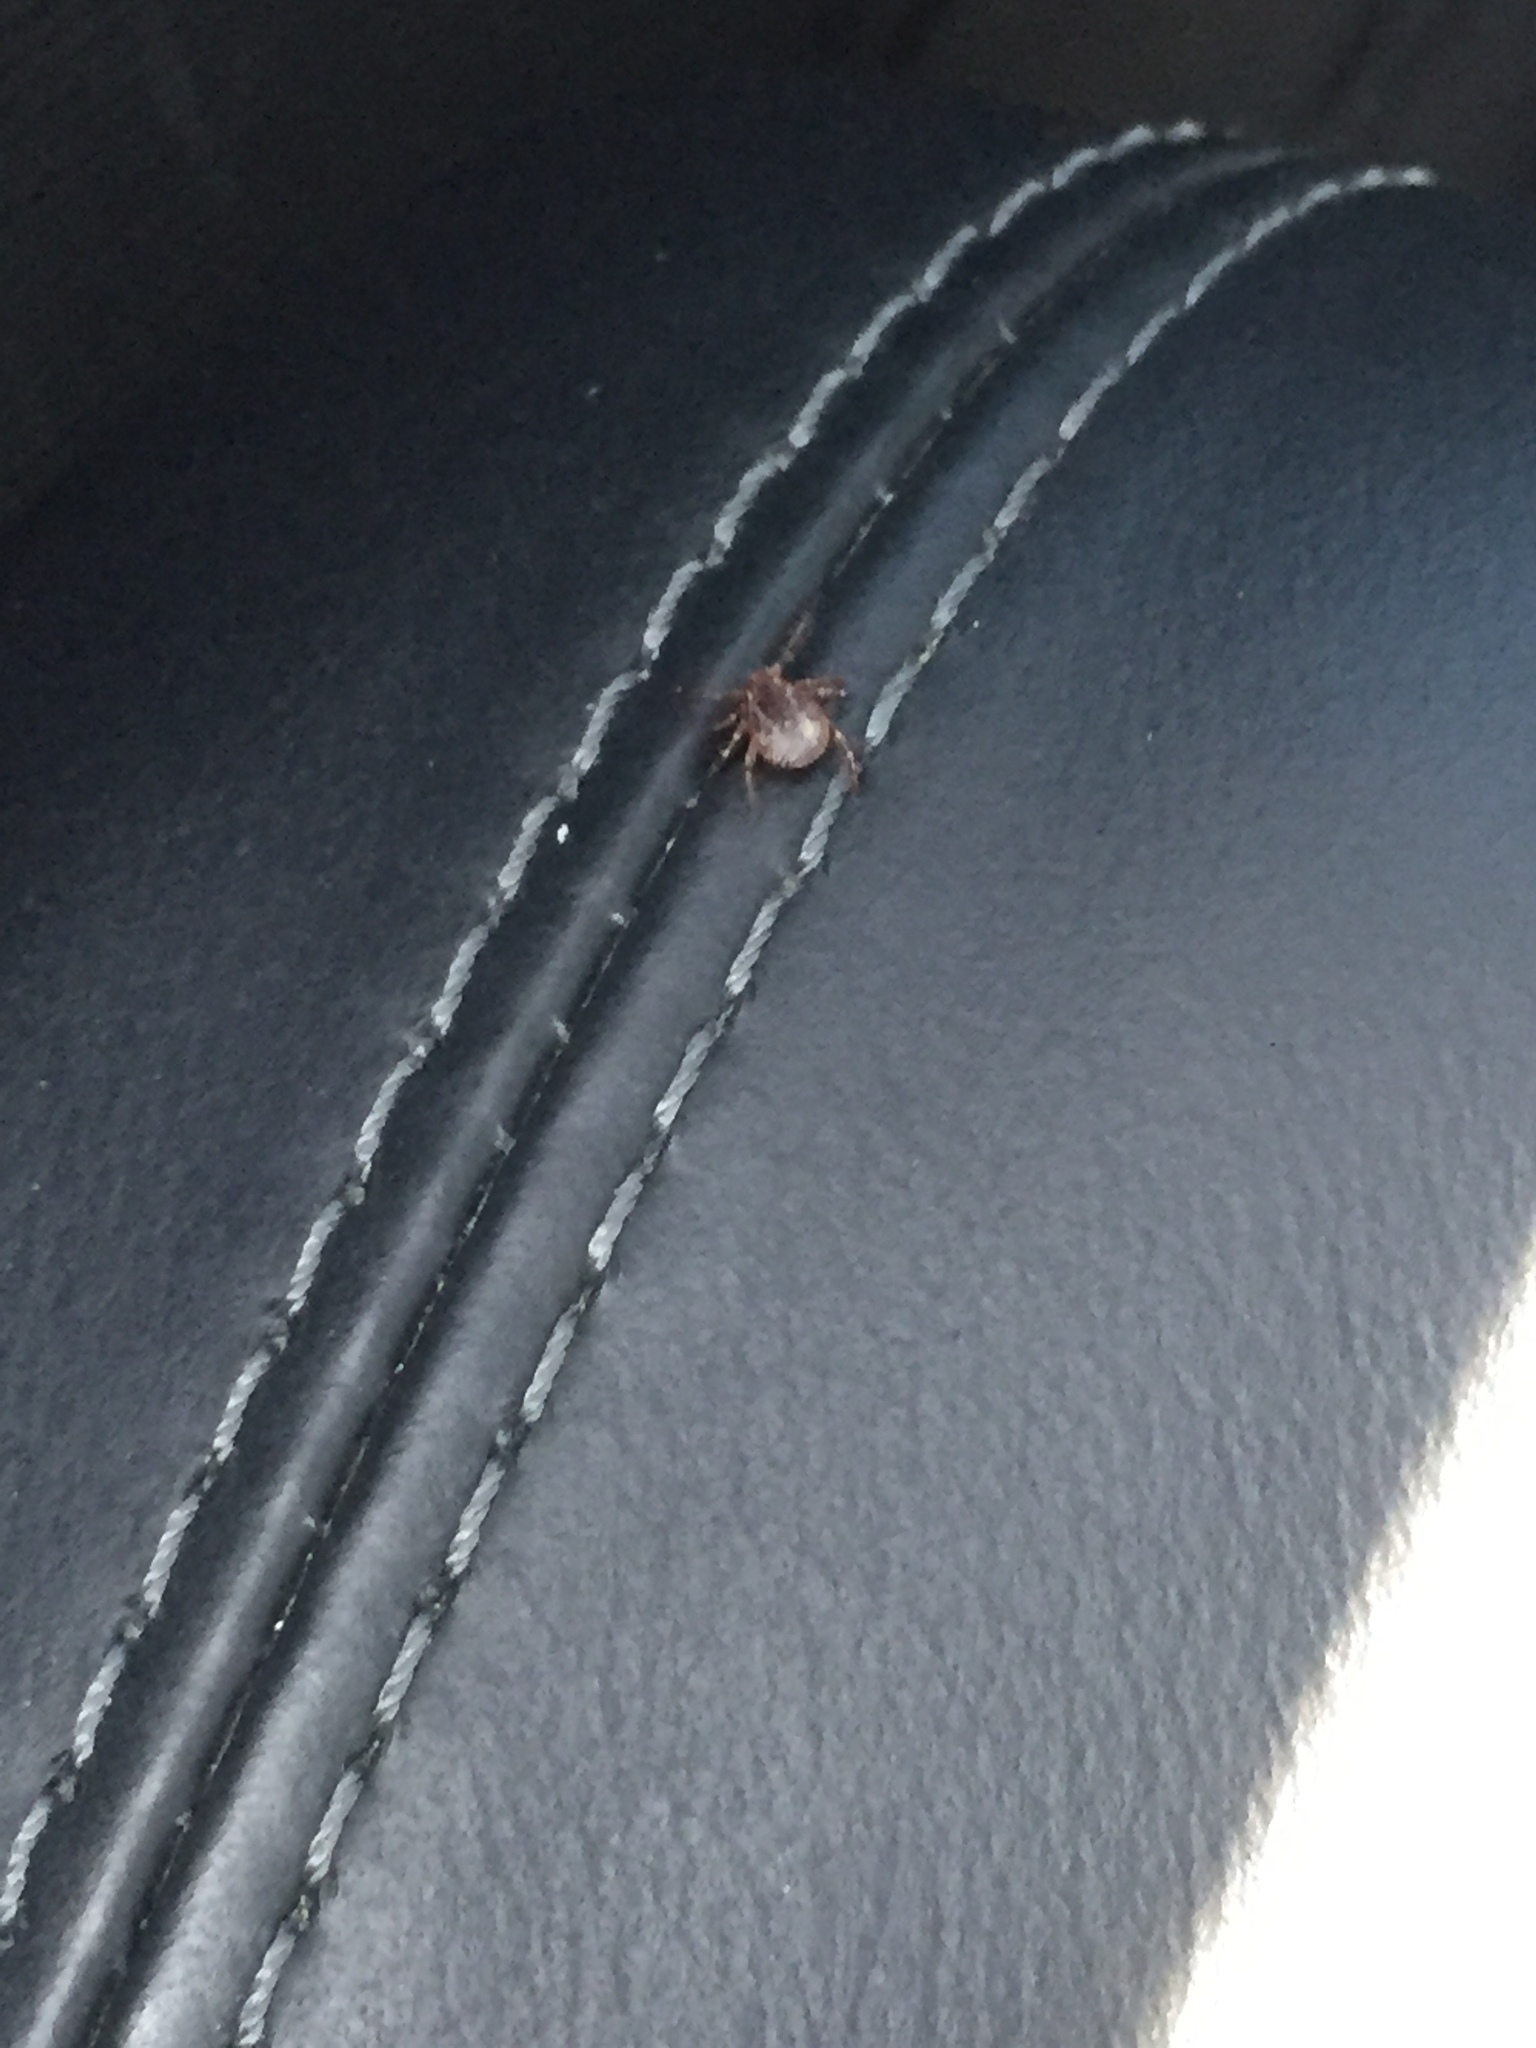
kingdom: Animalia
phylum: Arthropoda
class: Arachnida
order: Ixodida
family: Ixodidae
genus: Dermacentor
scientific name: Dermacentor variabilis
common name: American dog tick
